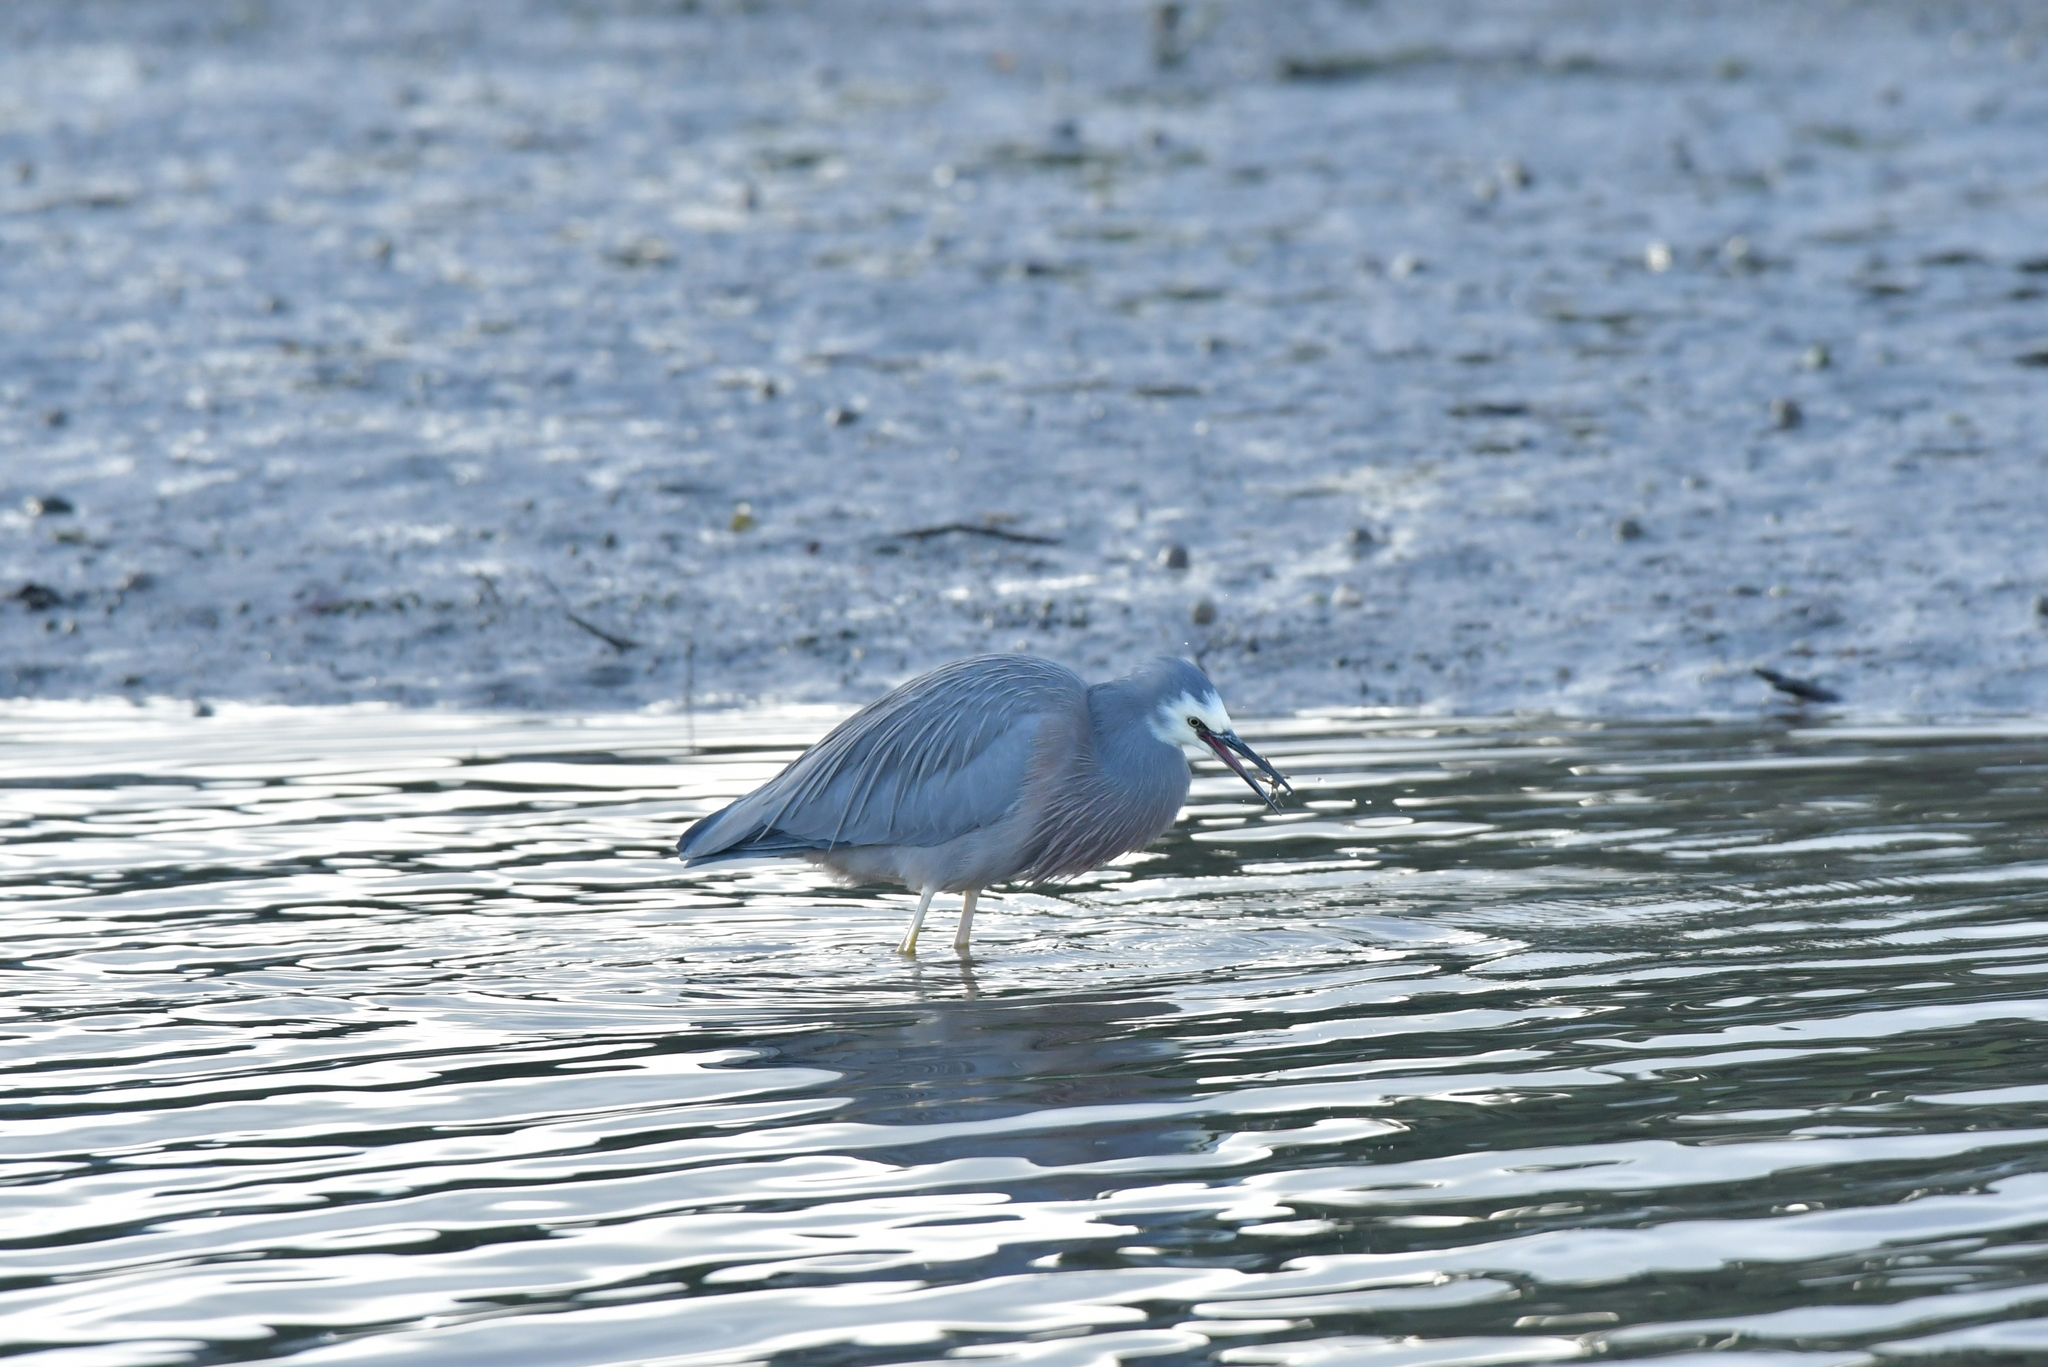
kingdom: Animalia
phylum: Chordata
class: Aves
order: Pelecaniformes
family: Ardeidae
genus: Egretta
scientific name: Egretta novaehollandiae
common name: White-faced heron
